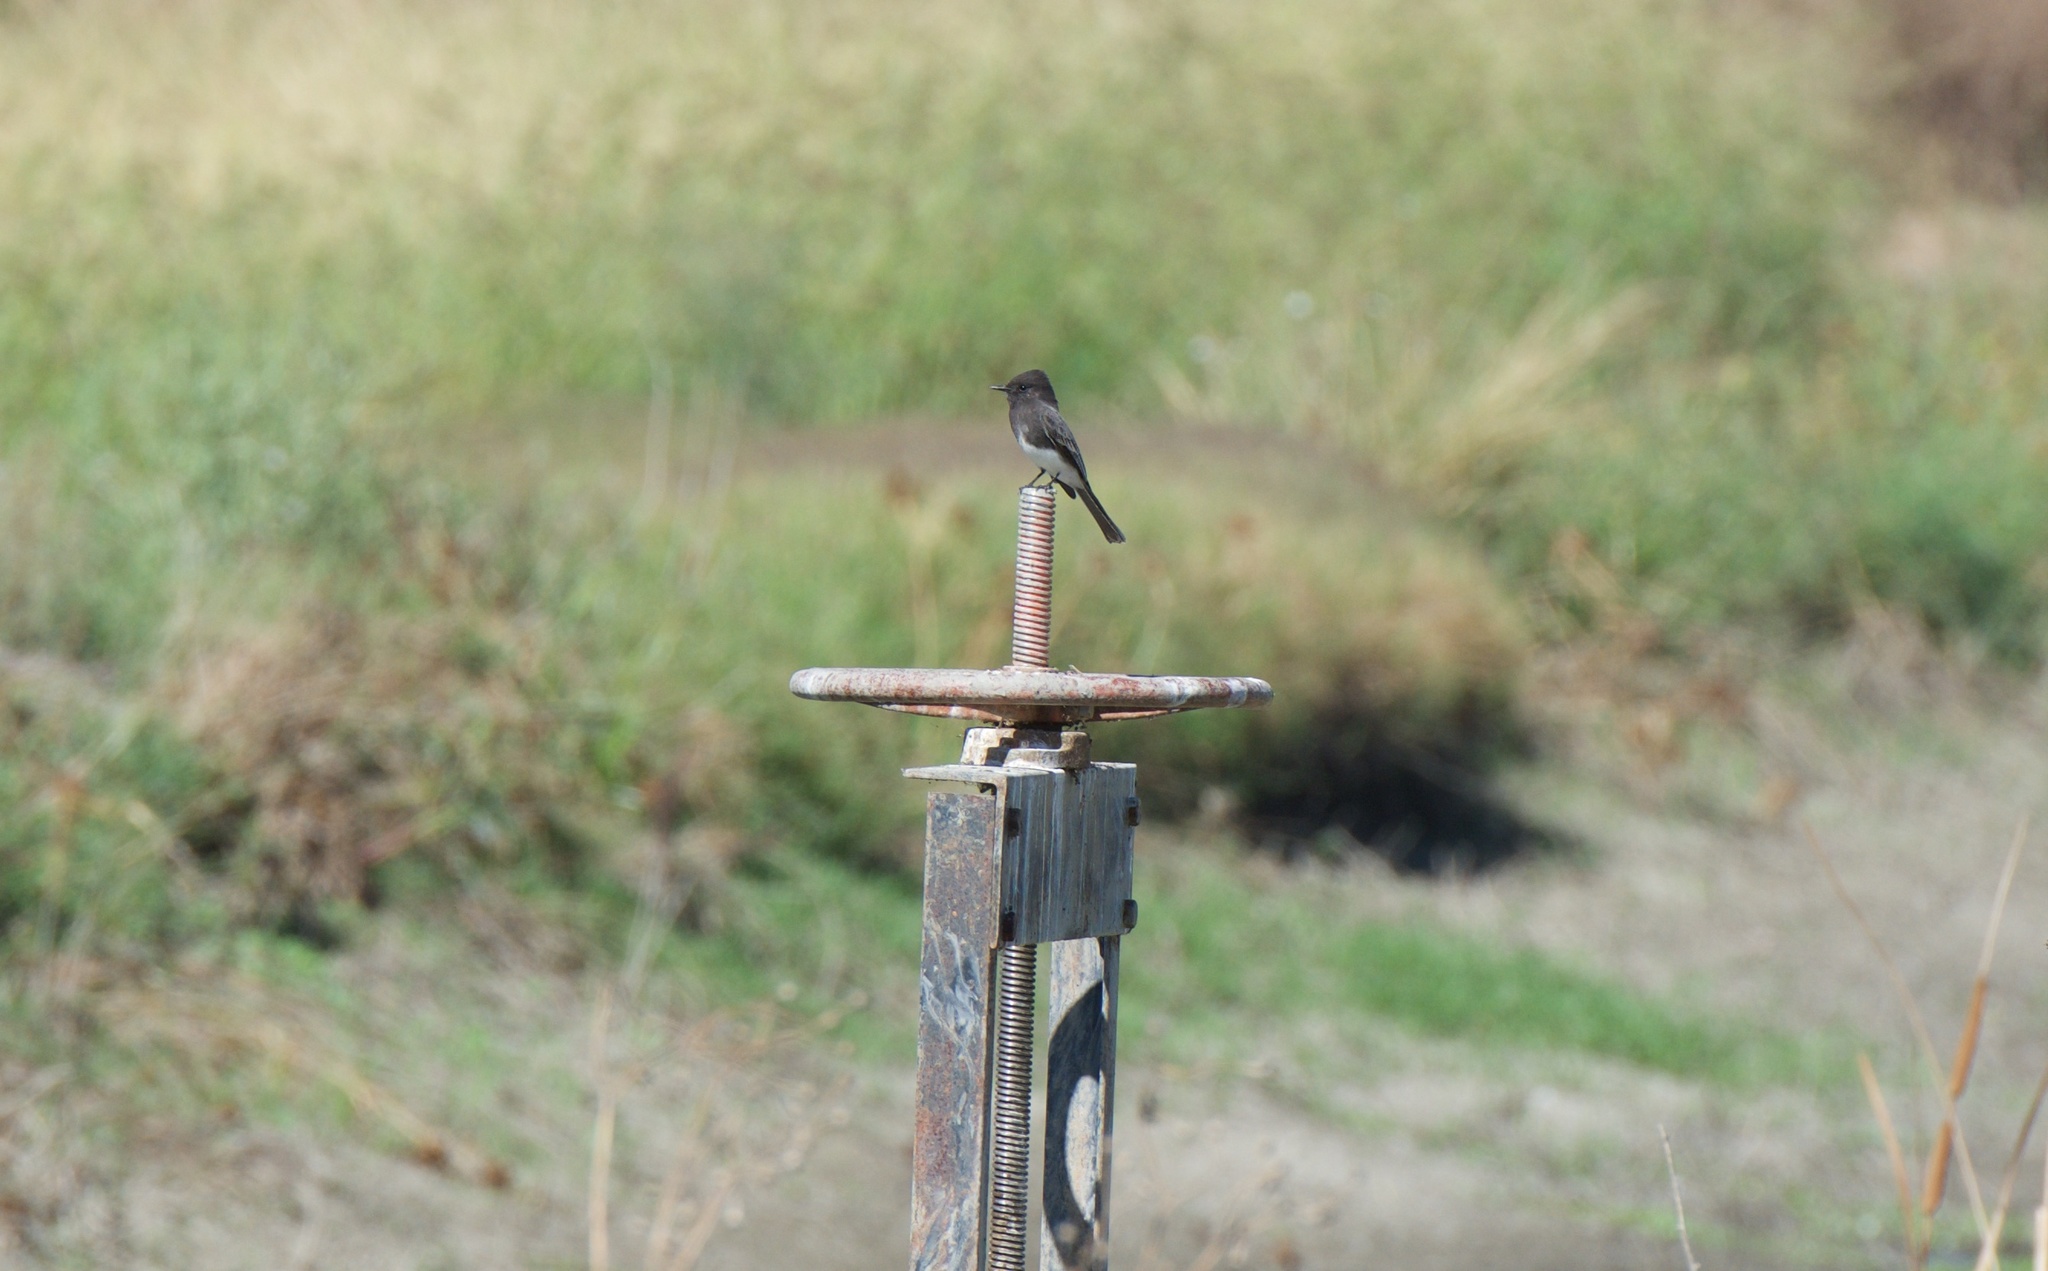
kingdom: Animalia
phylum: Chordata
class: Aves
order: Passeriformes
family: Tyrannidae
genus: Sayornis
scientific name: Sayornis nigricans
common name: Black phoebe
